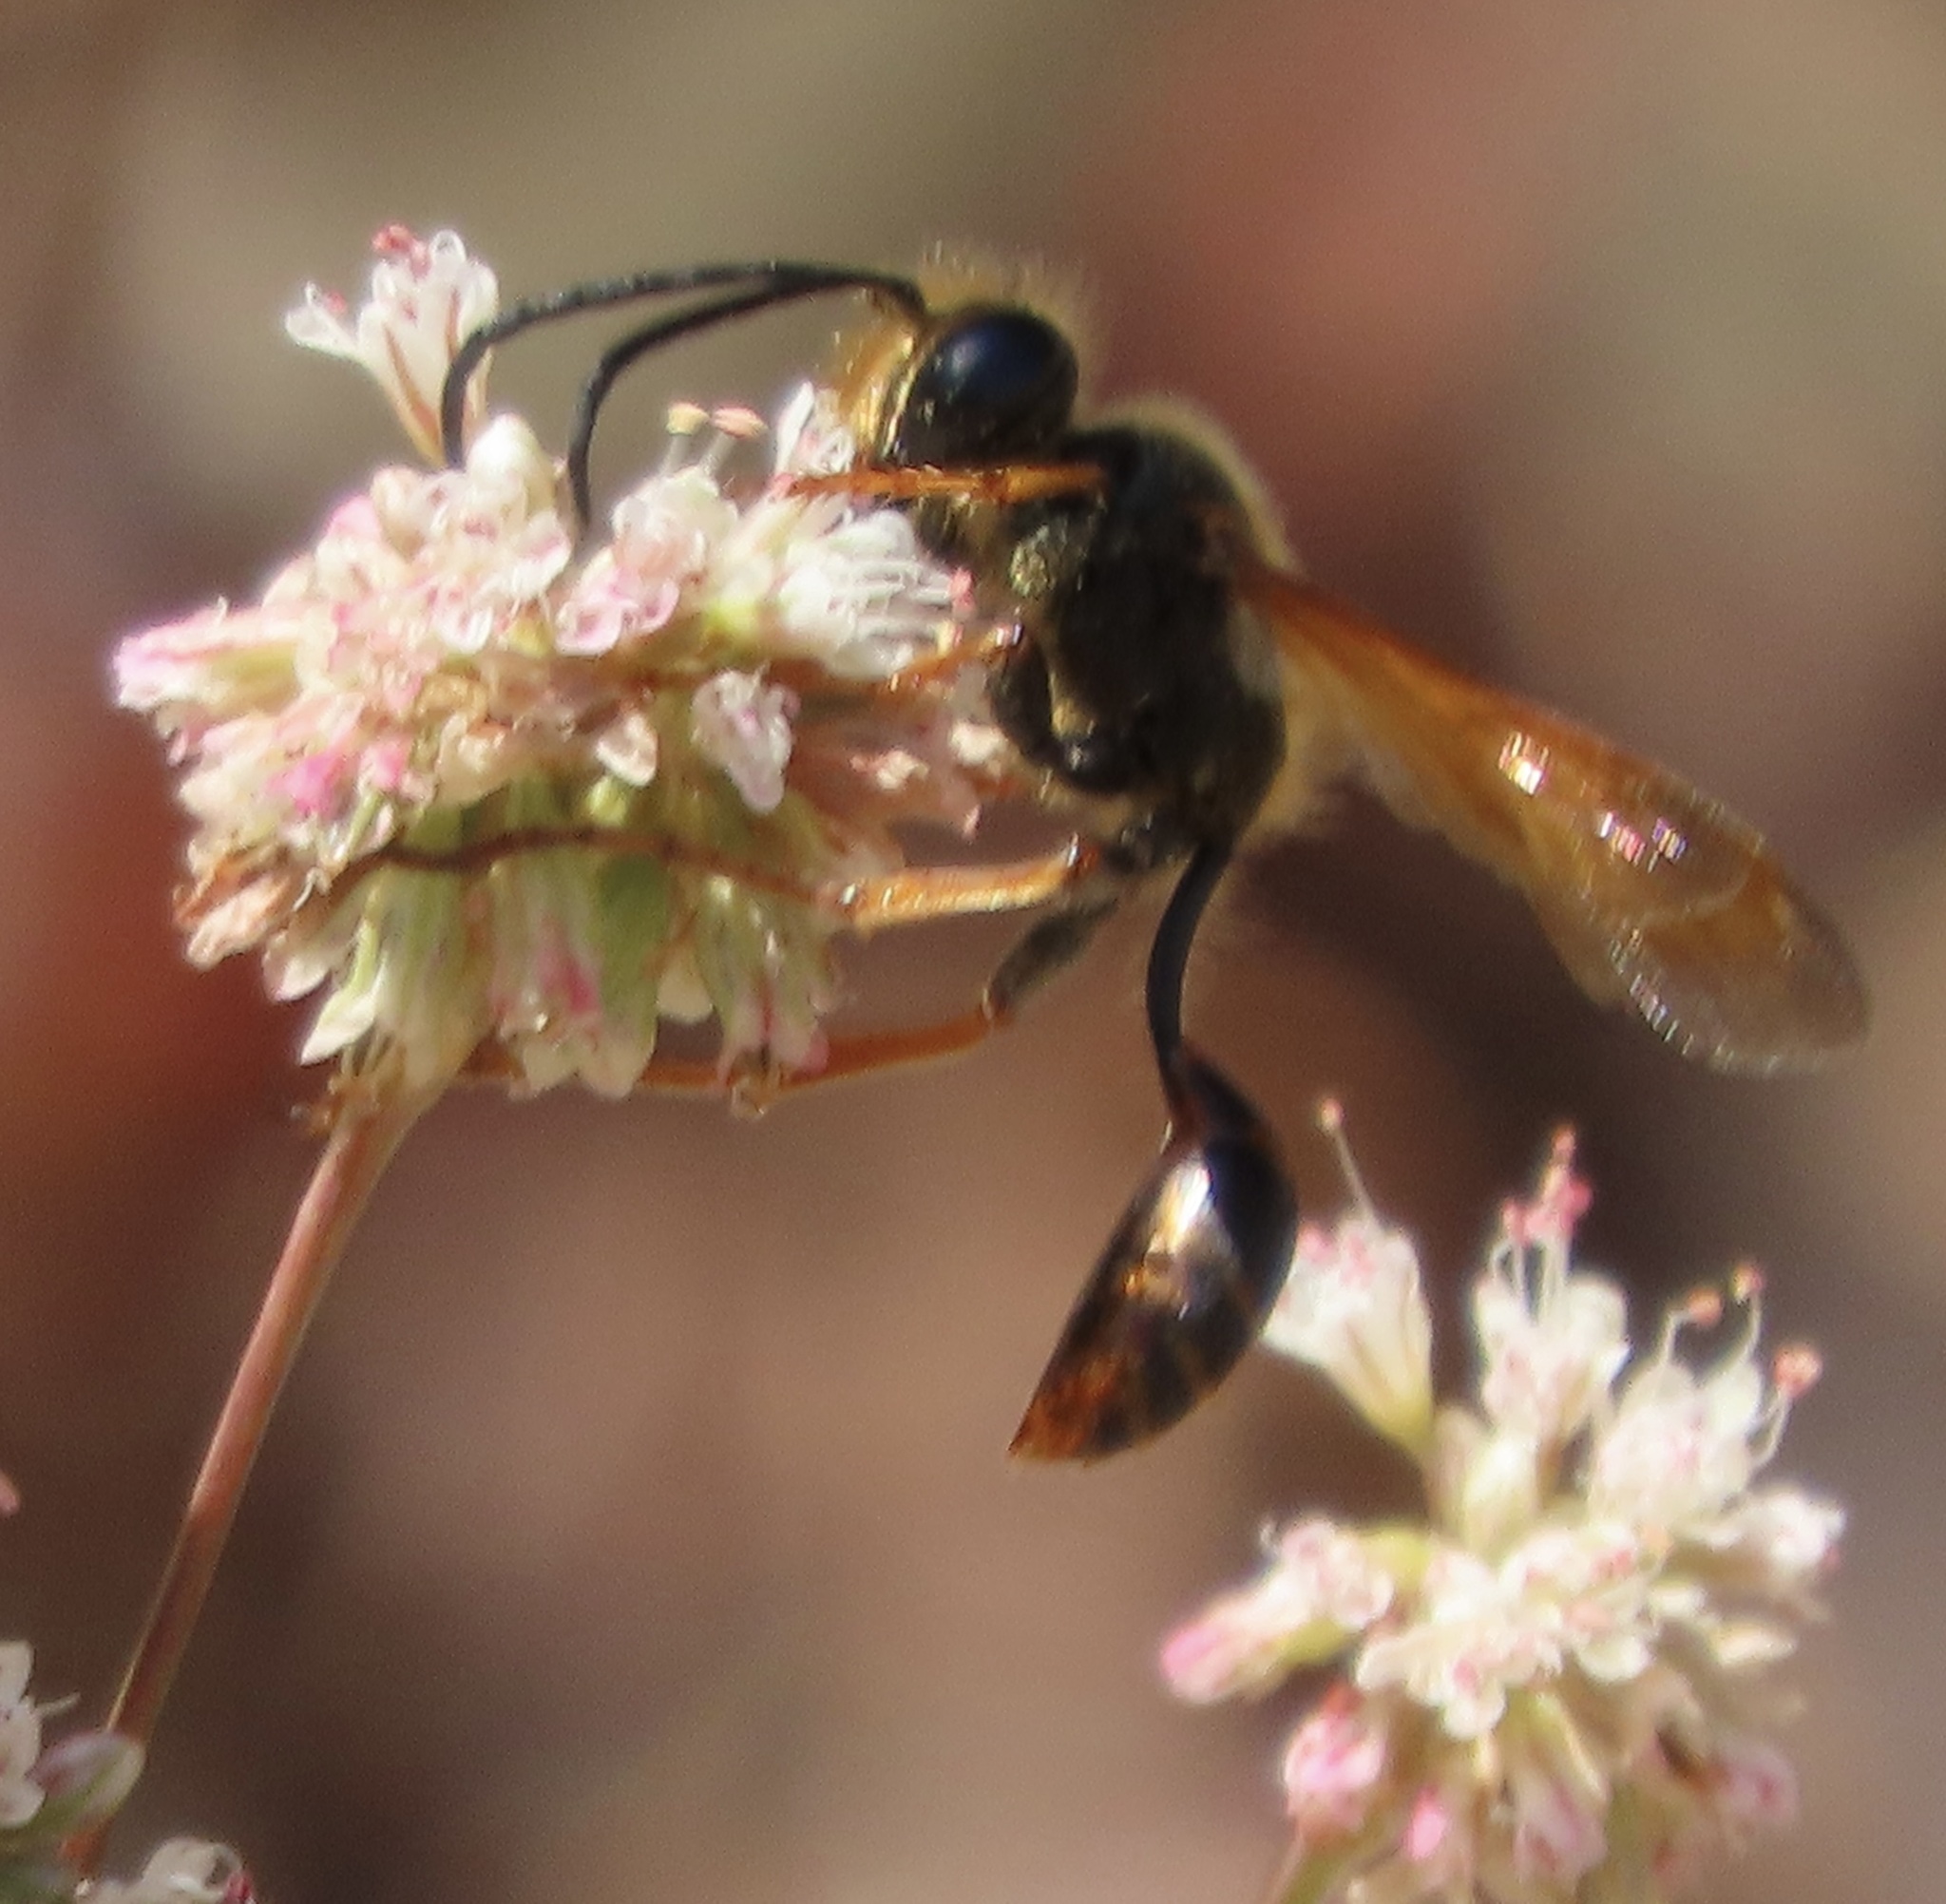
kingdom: Animalia
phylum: Arthropoda
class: Insecta
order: Hymenoptera
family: Sphecidae
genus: Isodontia
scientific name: Isodontia elegans
